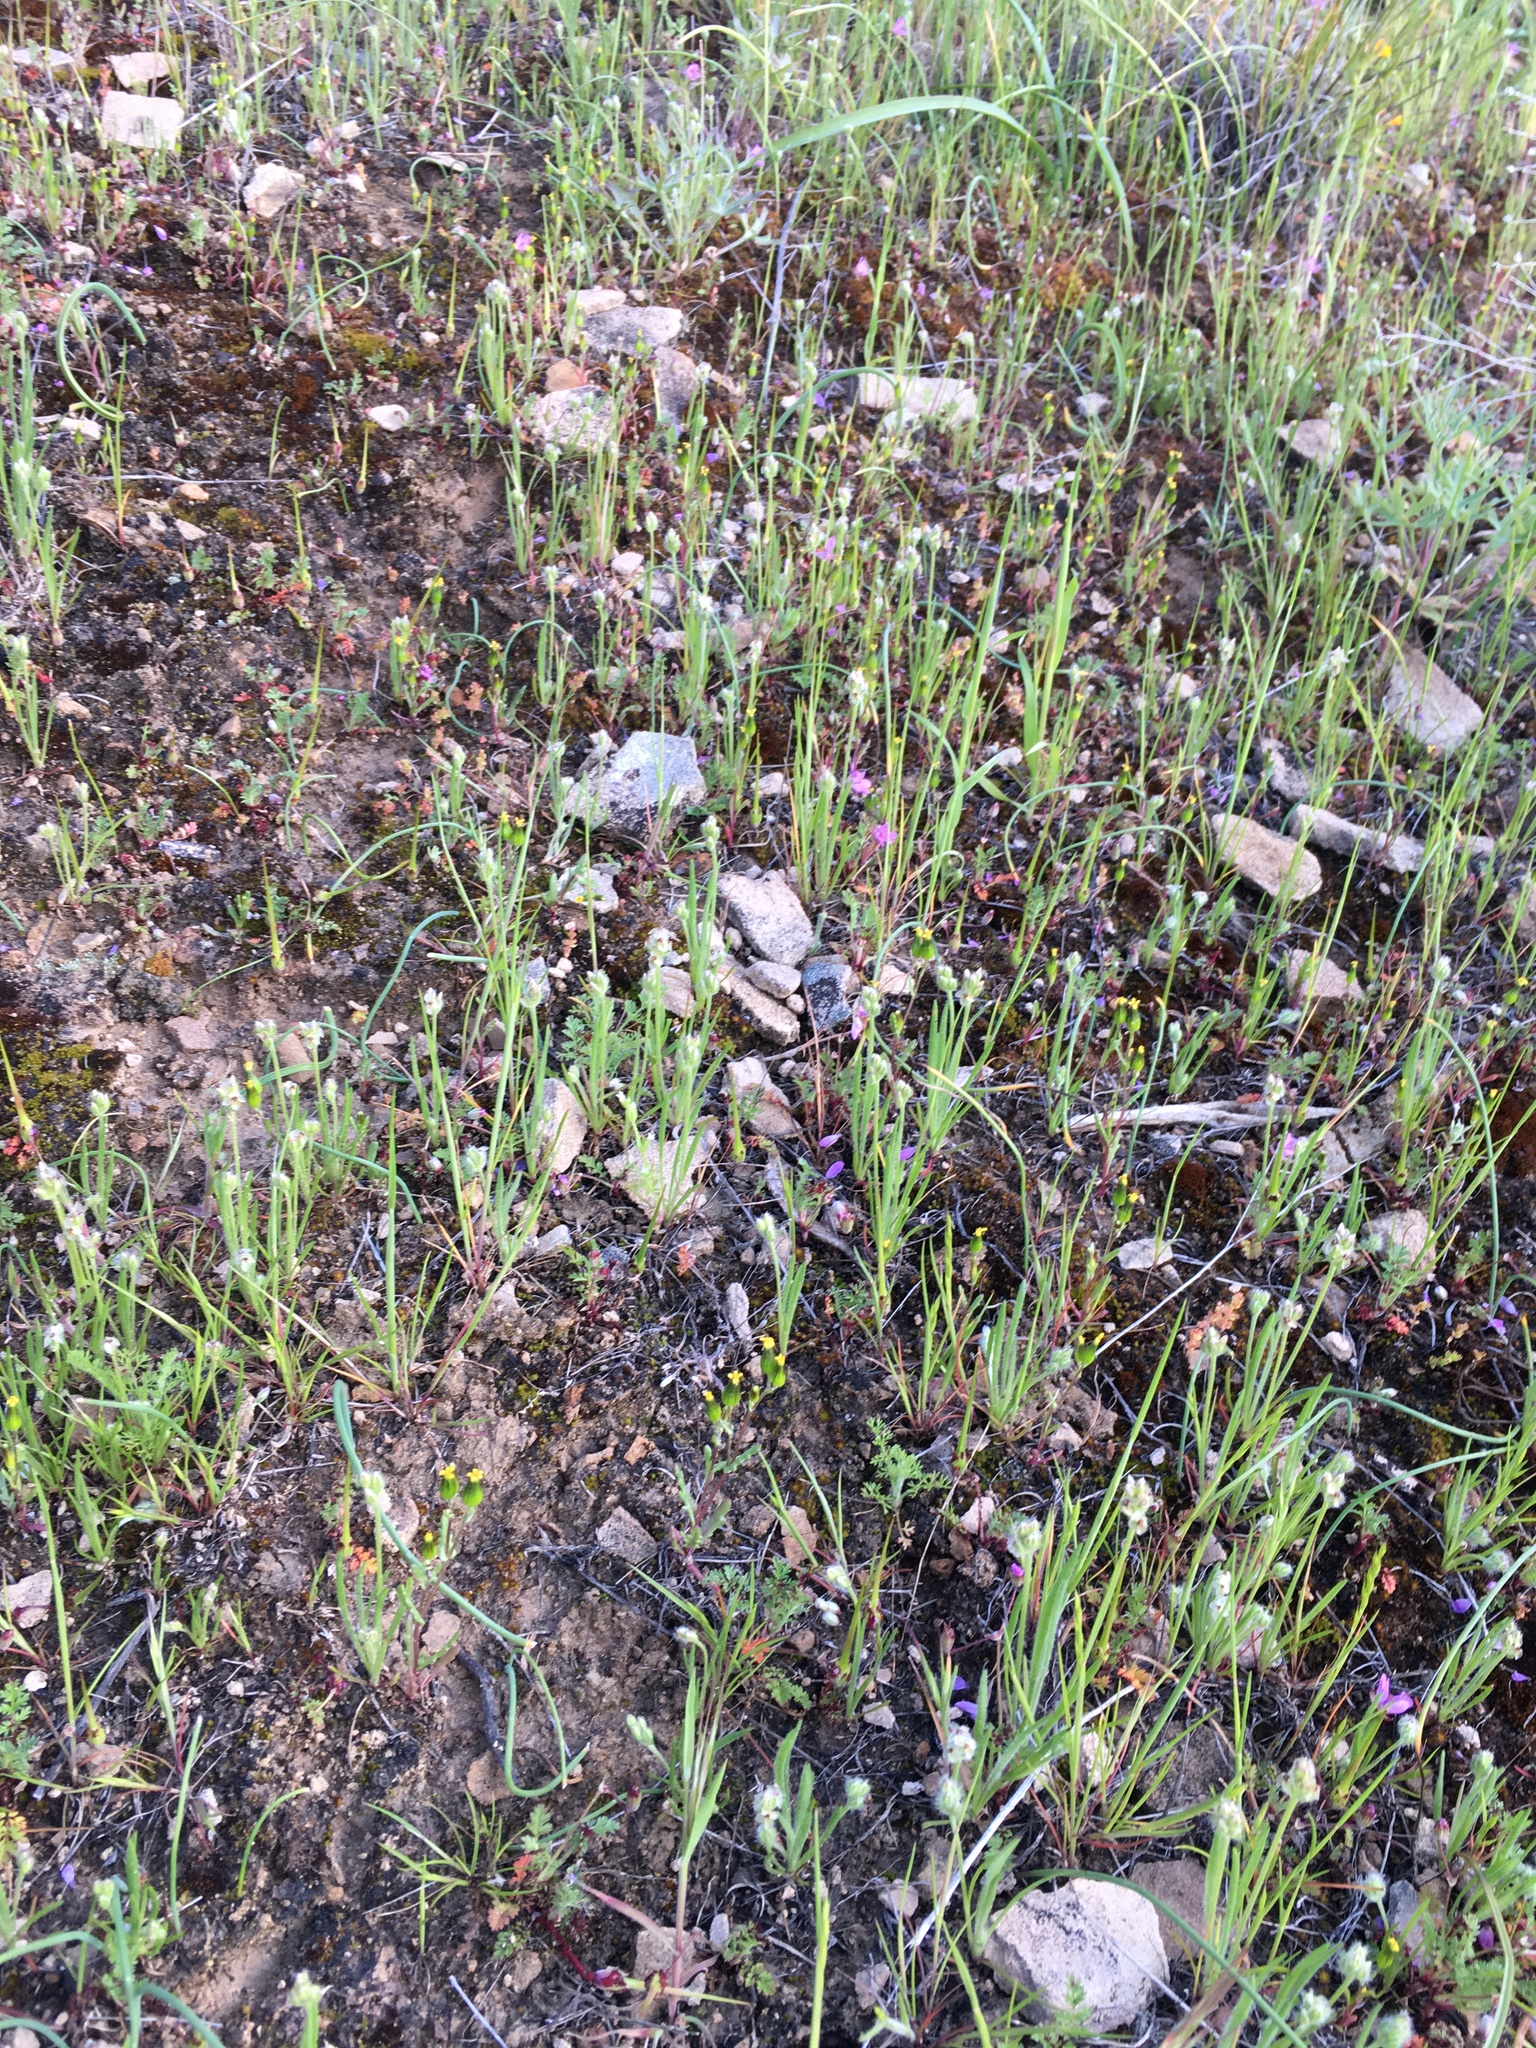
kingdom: Plantae
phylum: Tracheophyta
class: Magnoliopsida
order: Asterales
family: Asteraceae
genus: Senecio
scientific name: Senecio aphanactis
